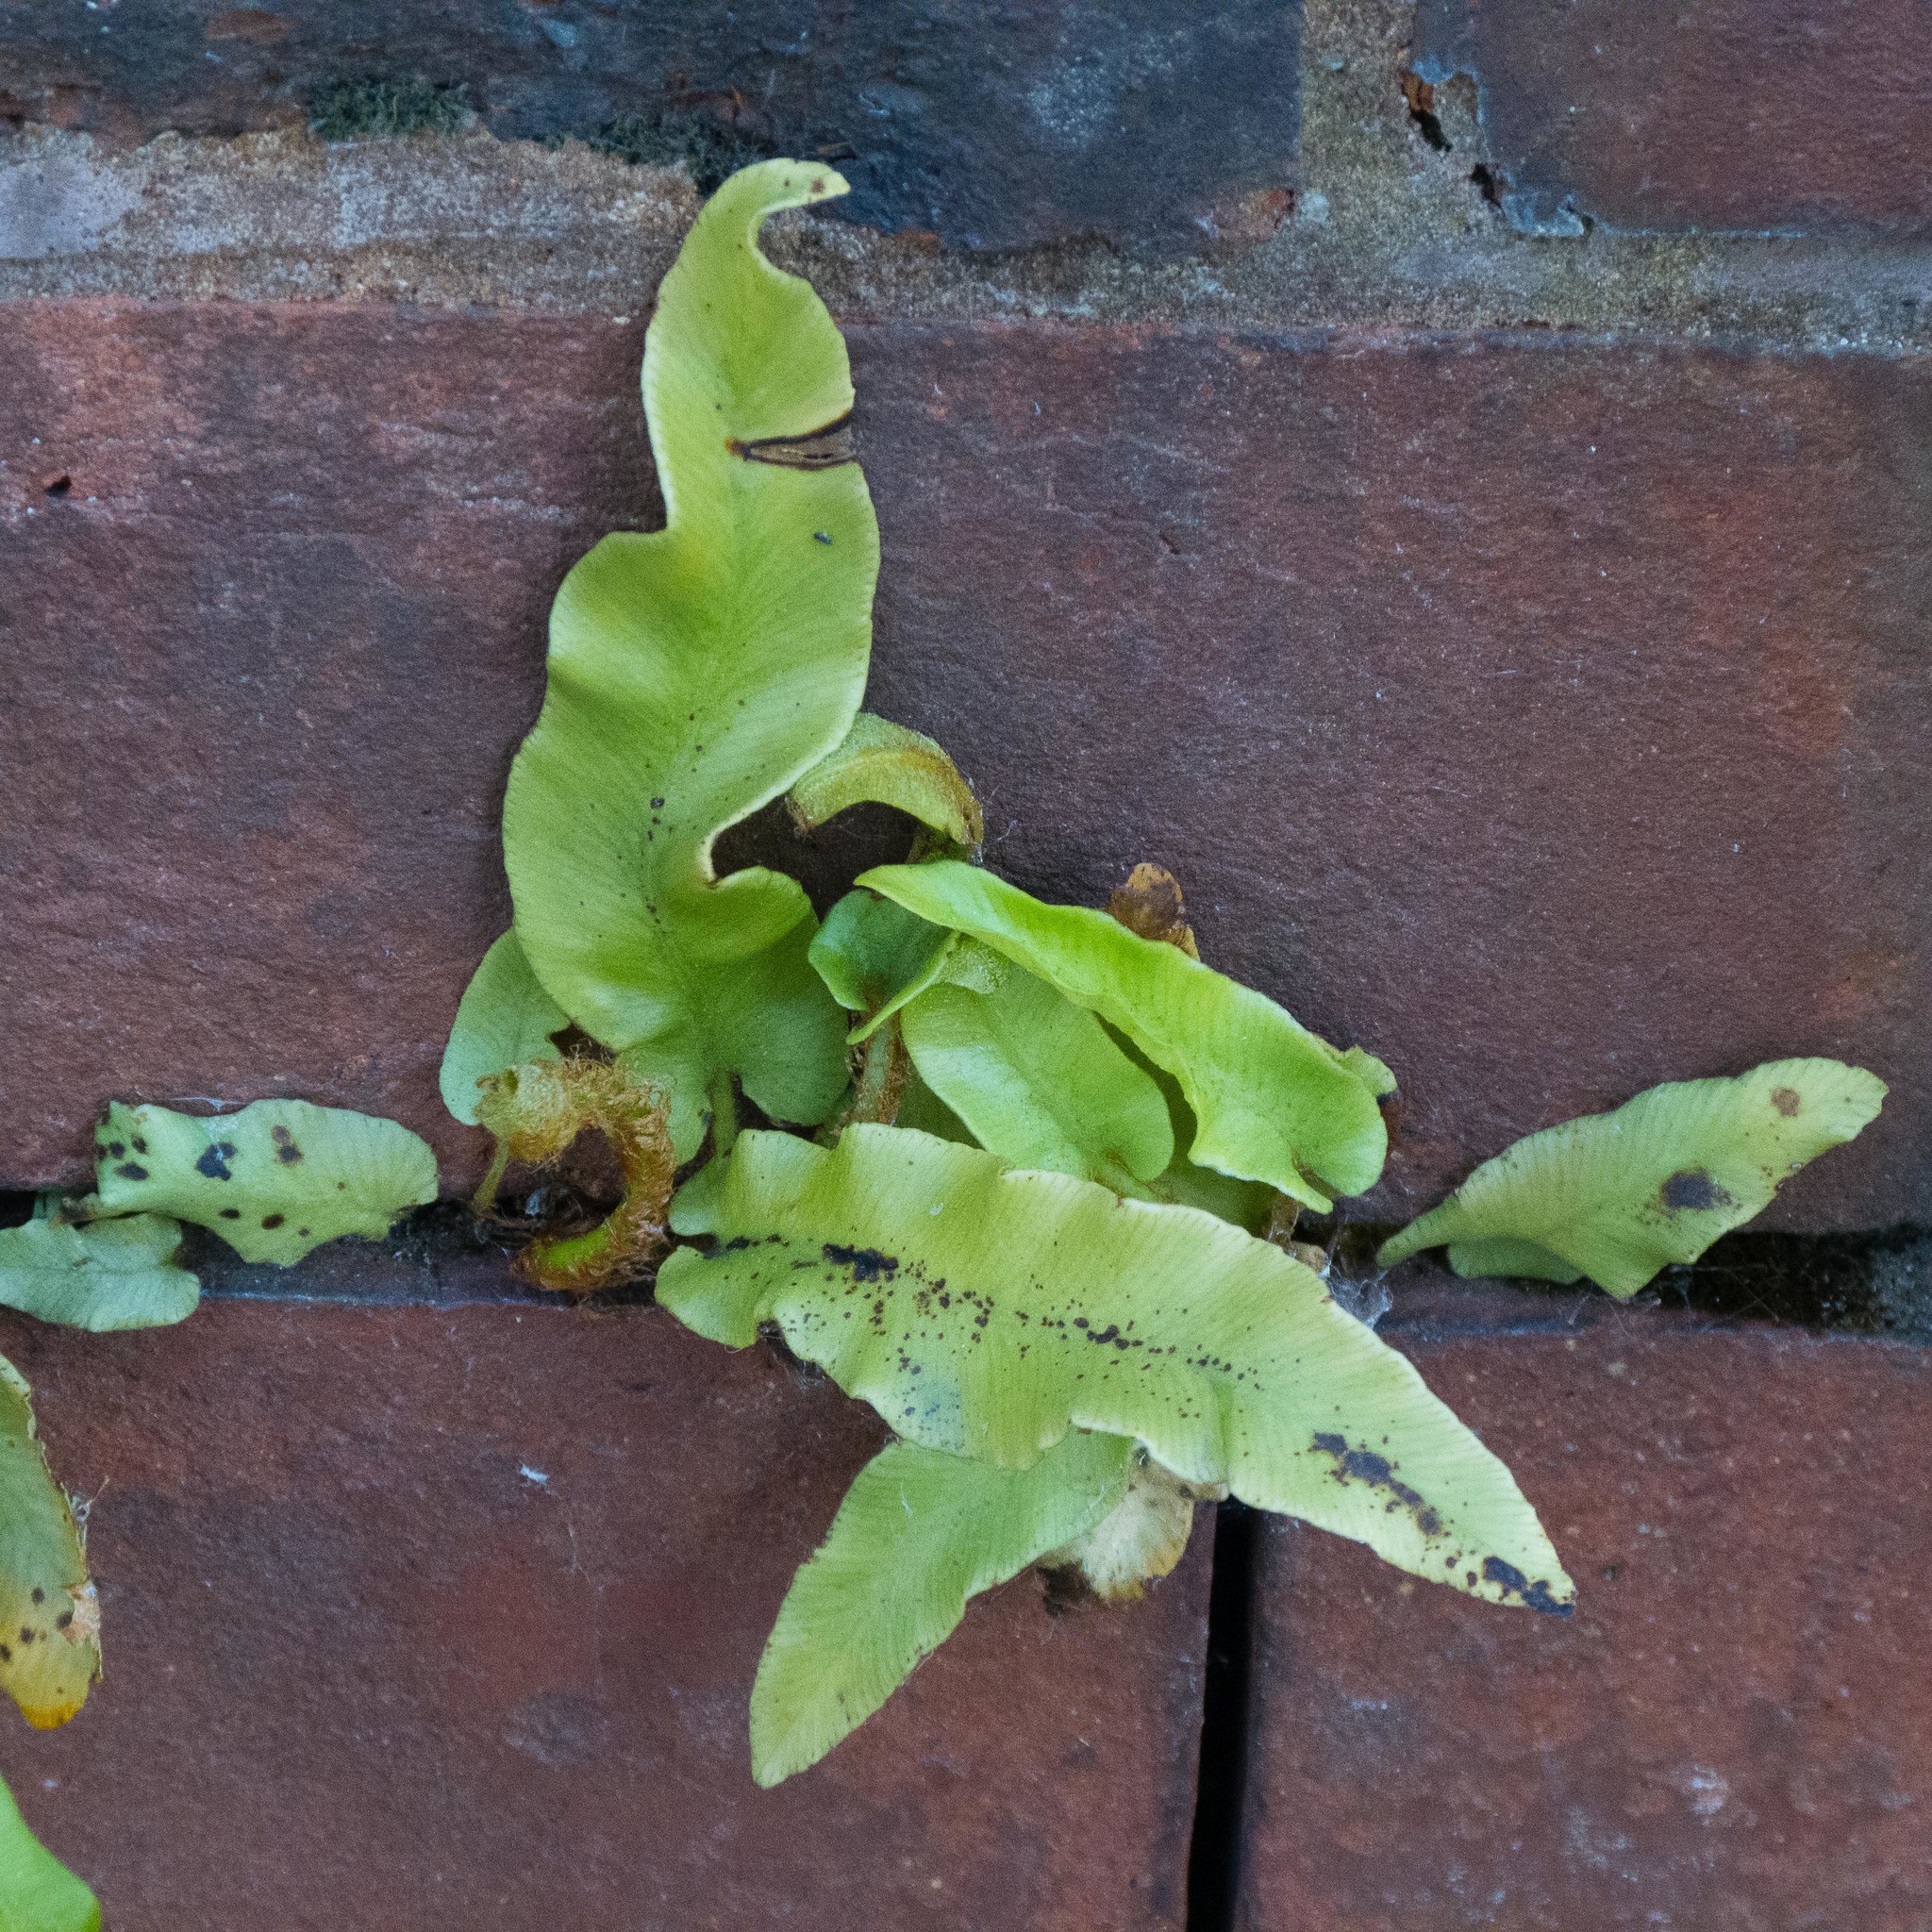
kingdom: Plantae
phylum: Tracheophyta
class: Polypodiopsida
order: Polypodiales
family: Aspleniaceae
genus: Asplenium
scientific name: Asplenium scolopendrium
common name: Hart's-tongue fern
